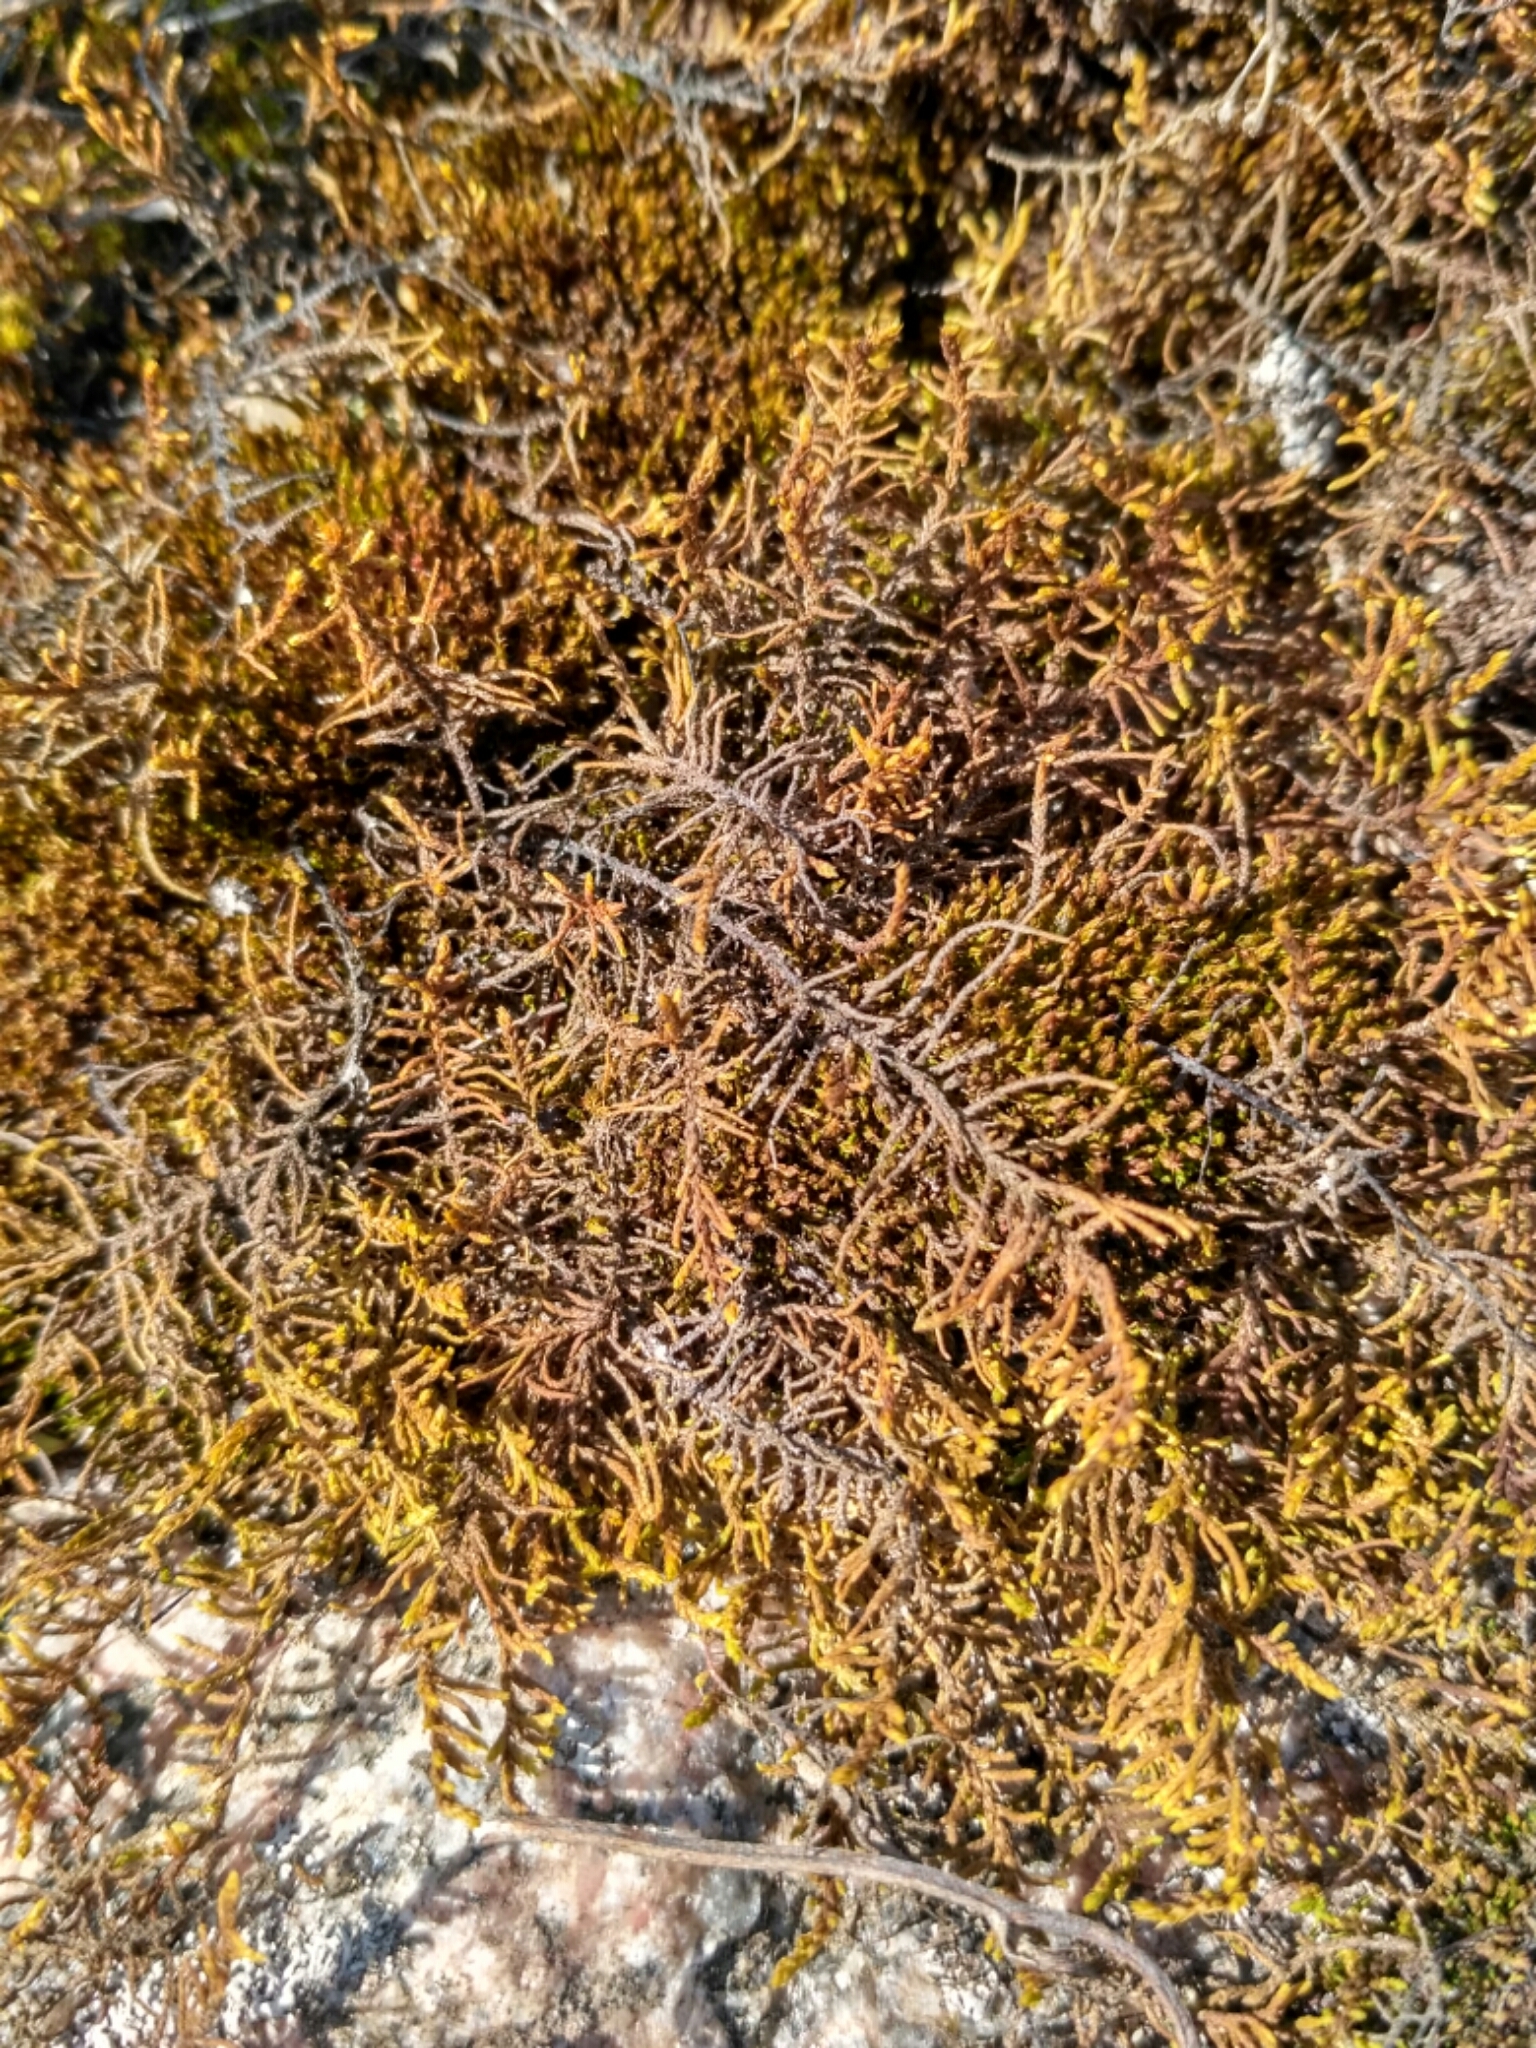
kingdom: Plantae
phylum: Bryophyta
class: Bryopsida
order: Hypnales
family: Thuidiaceae
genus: Abietinella
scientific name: Abietinella abietina
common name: Wiry fern moss
